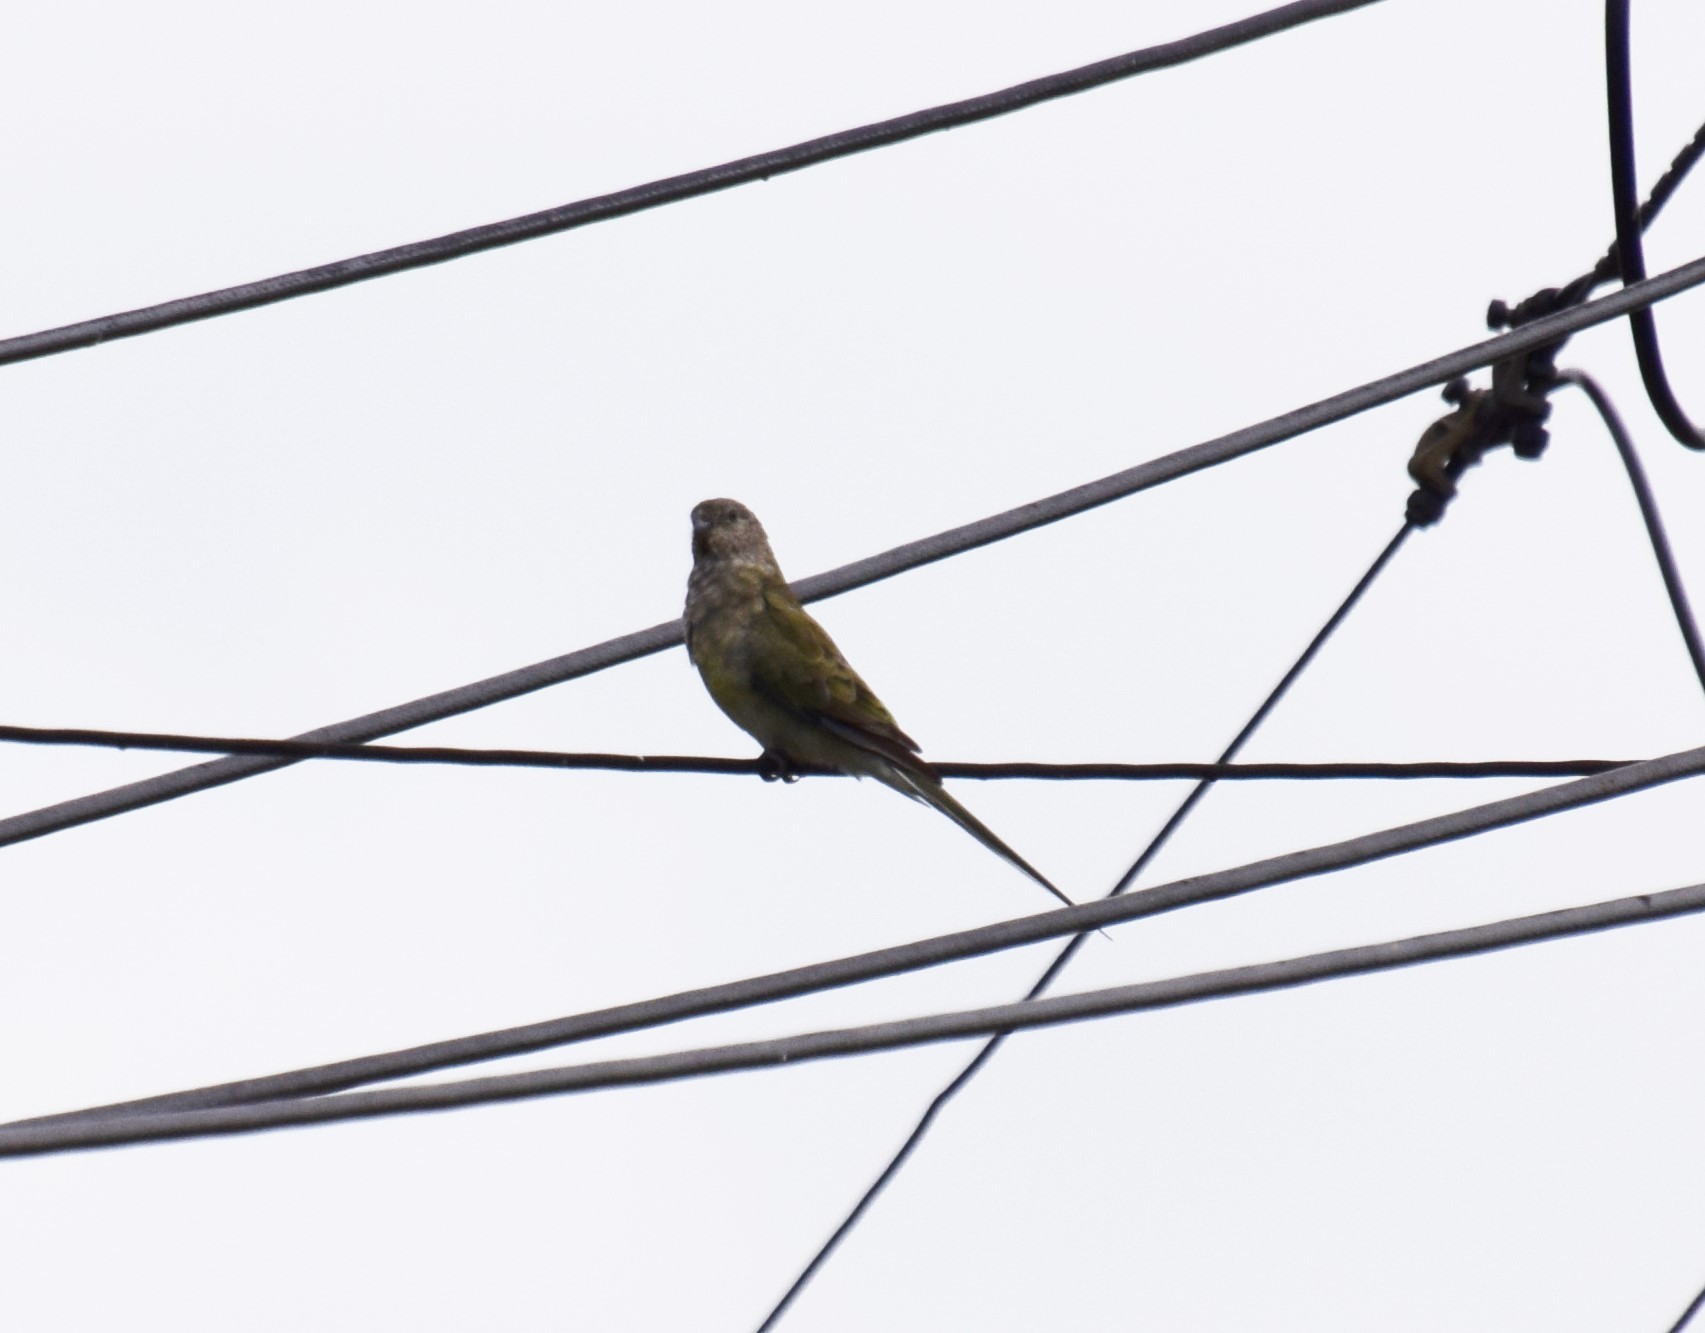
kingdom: Animalia
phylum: Chordata
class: Aves
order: Psittaciformes
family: Psittacidae
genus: Psephotus
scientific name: Psephotus haematonotus
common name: Red-rumped parrot
